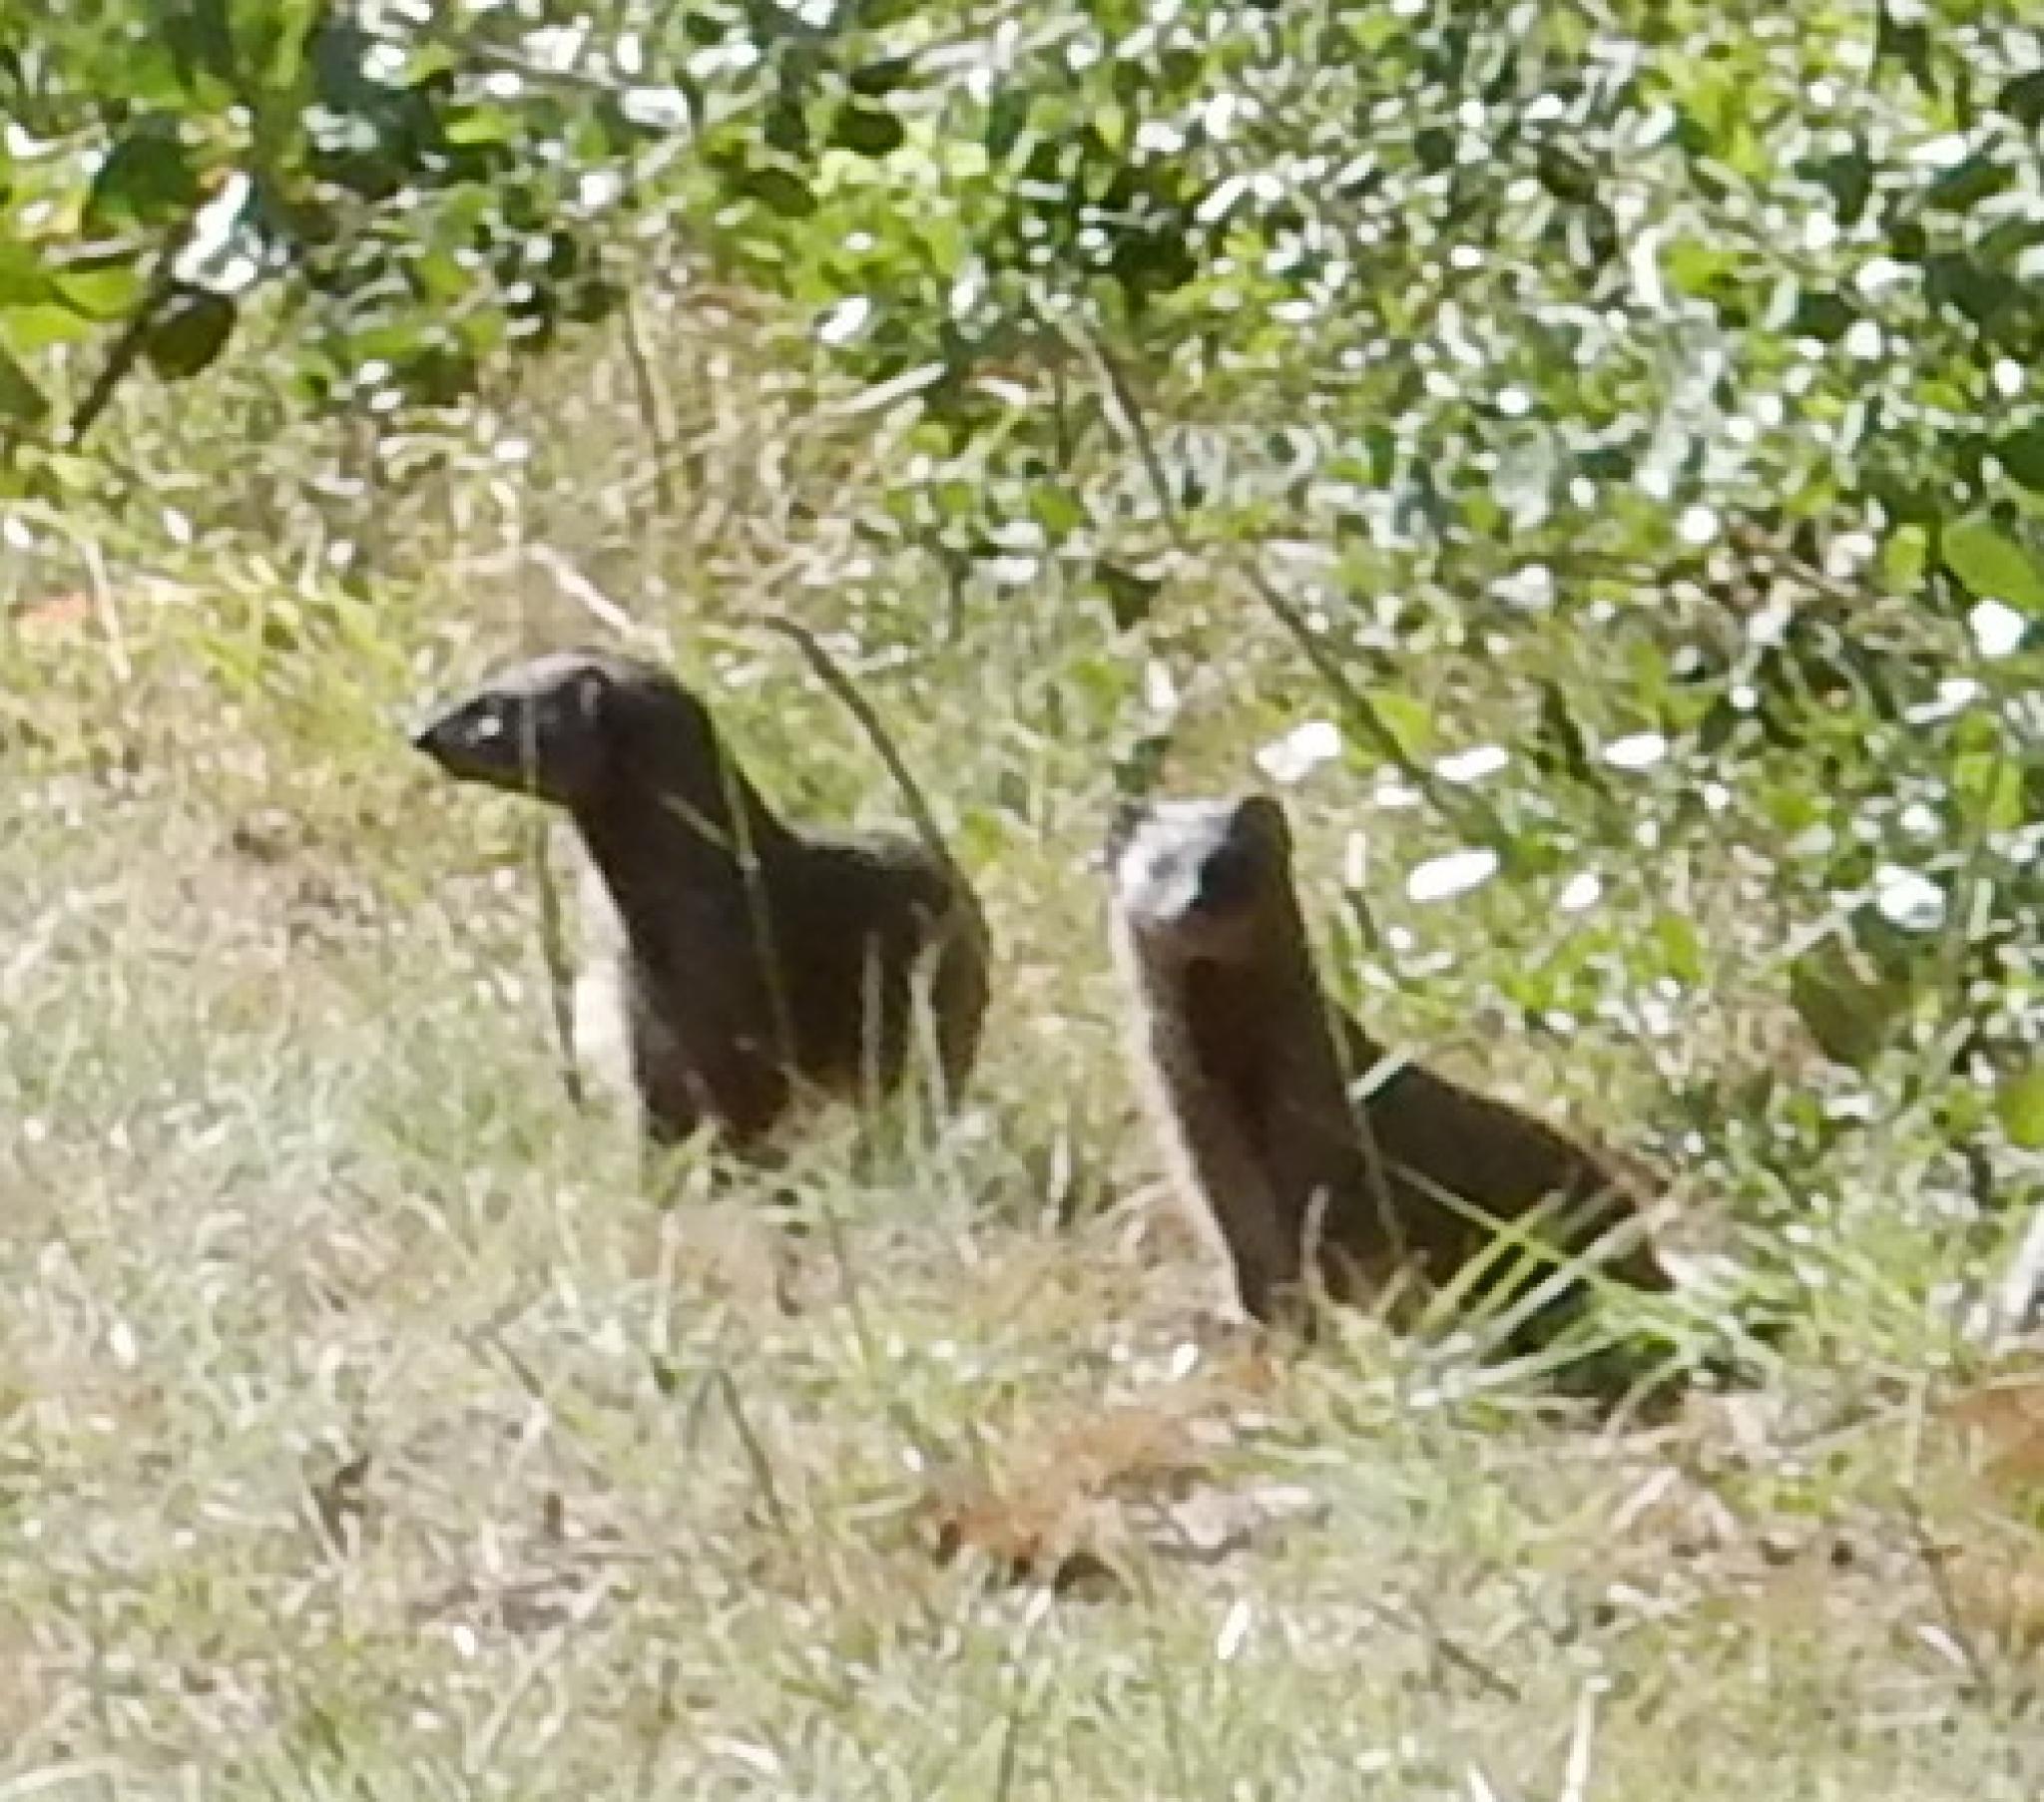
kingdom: Animalia
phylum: Chordata
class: Mammalia
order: Carnivora
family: Herpestidae
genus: Galerella
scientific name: Galerella pulverulenta
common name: Cape gray mongoose
